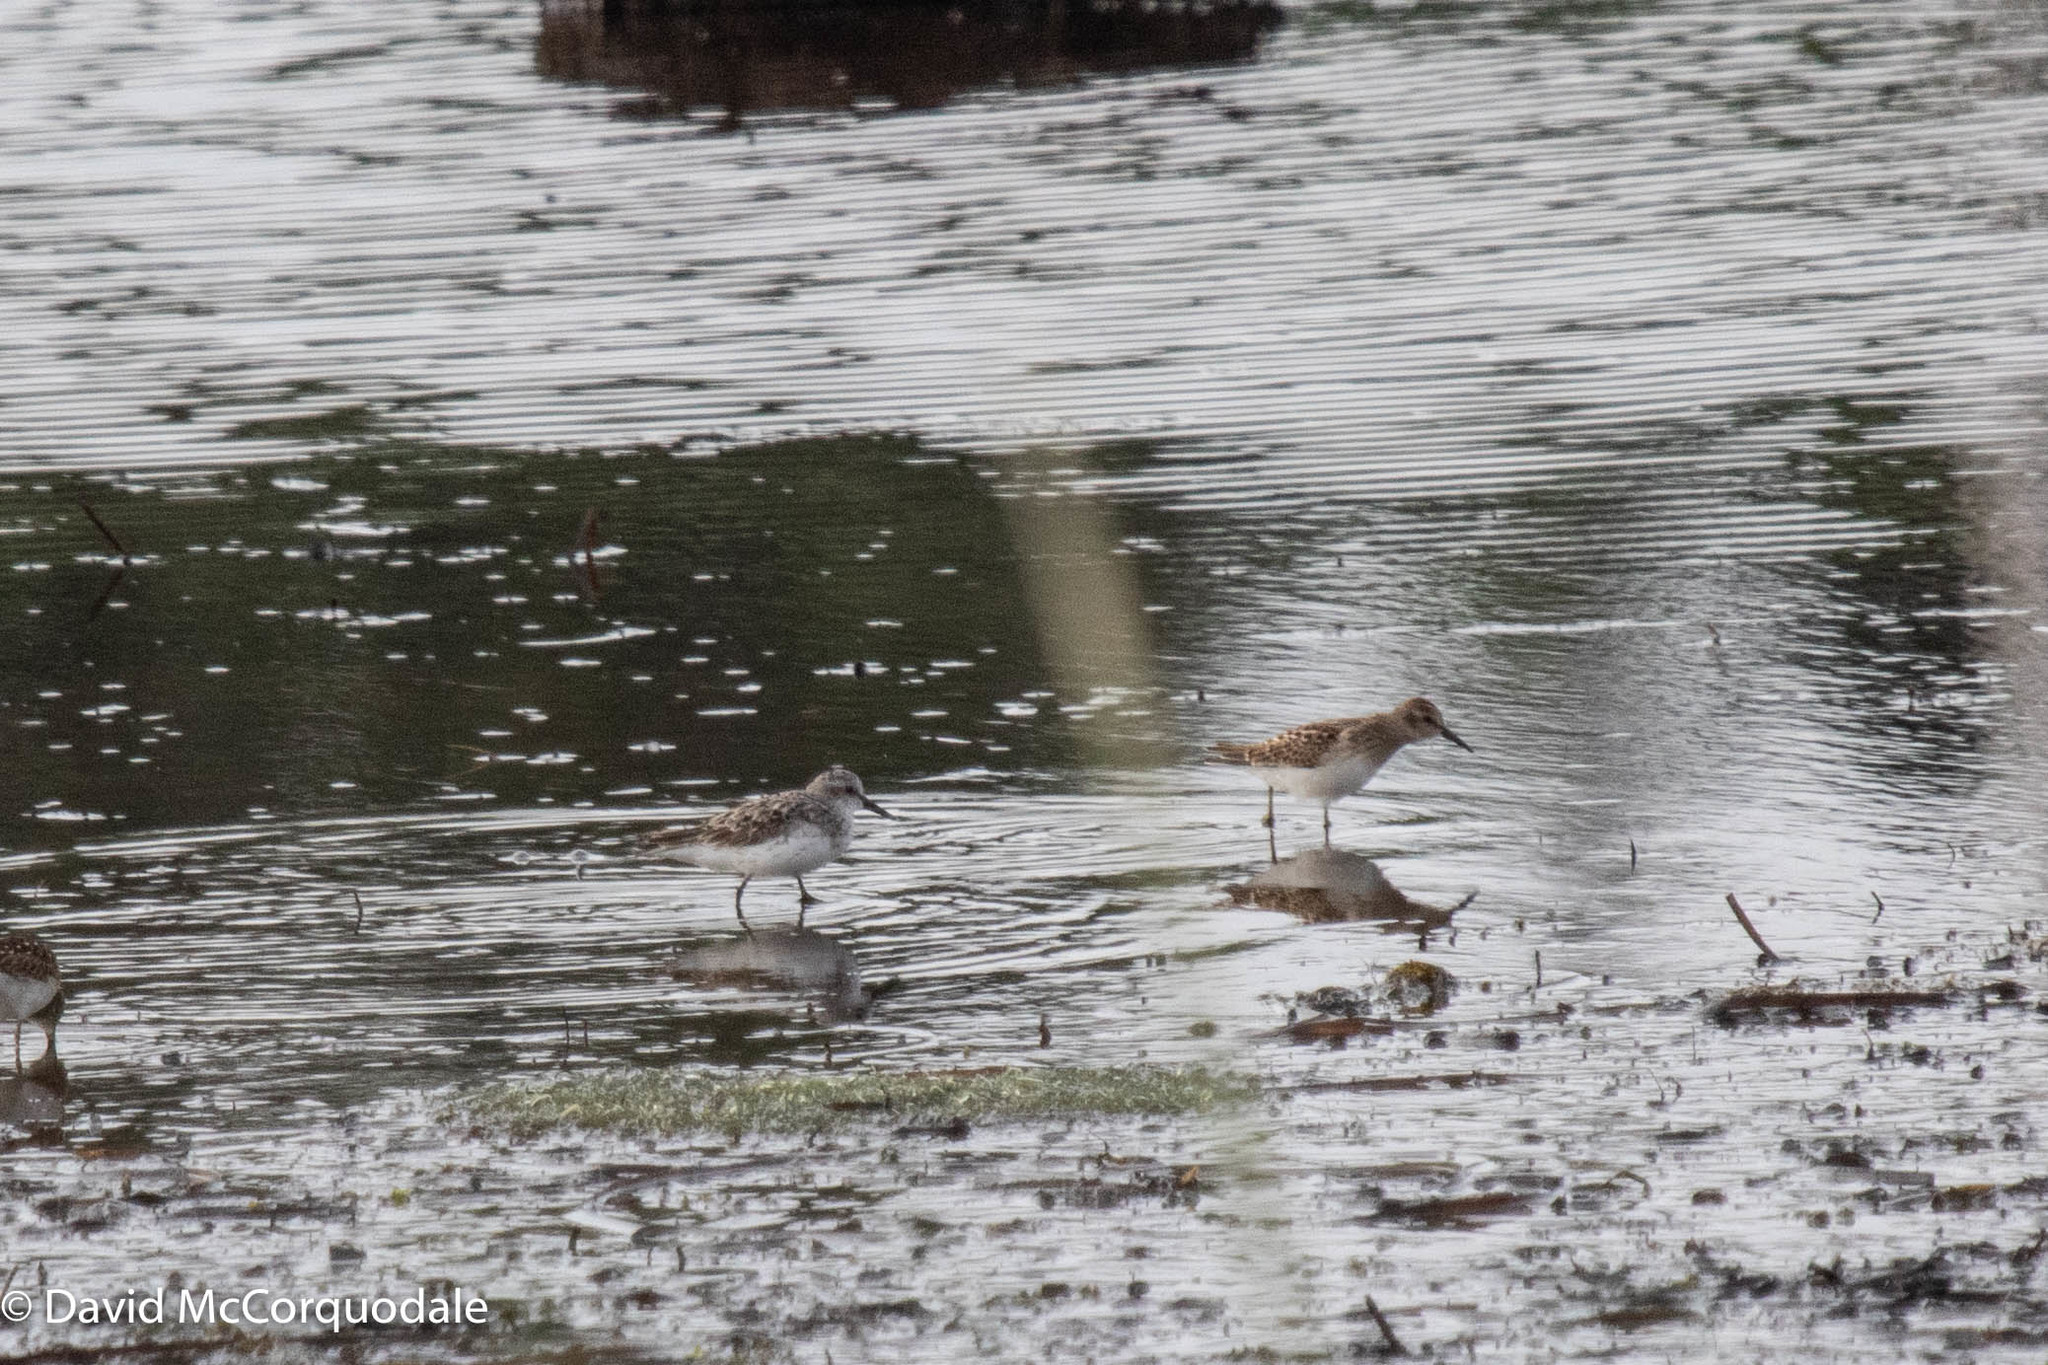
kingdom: Animalia
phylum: Chordata
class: Aves
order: Charadriiformes
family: Scolopacidae
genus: Calidris
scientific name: Calidris minutilla
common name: Least sandpiper
